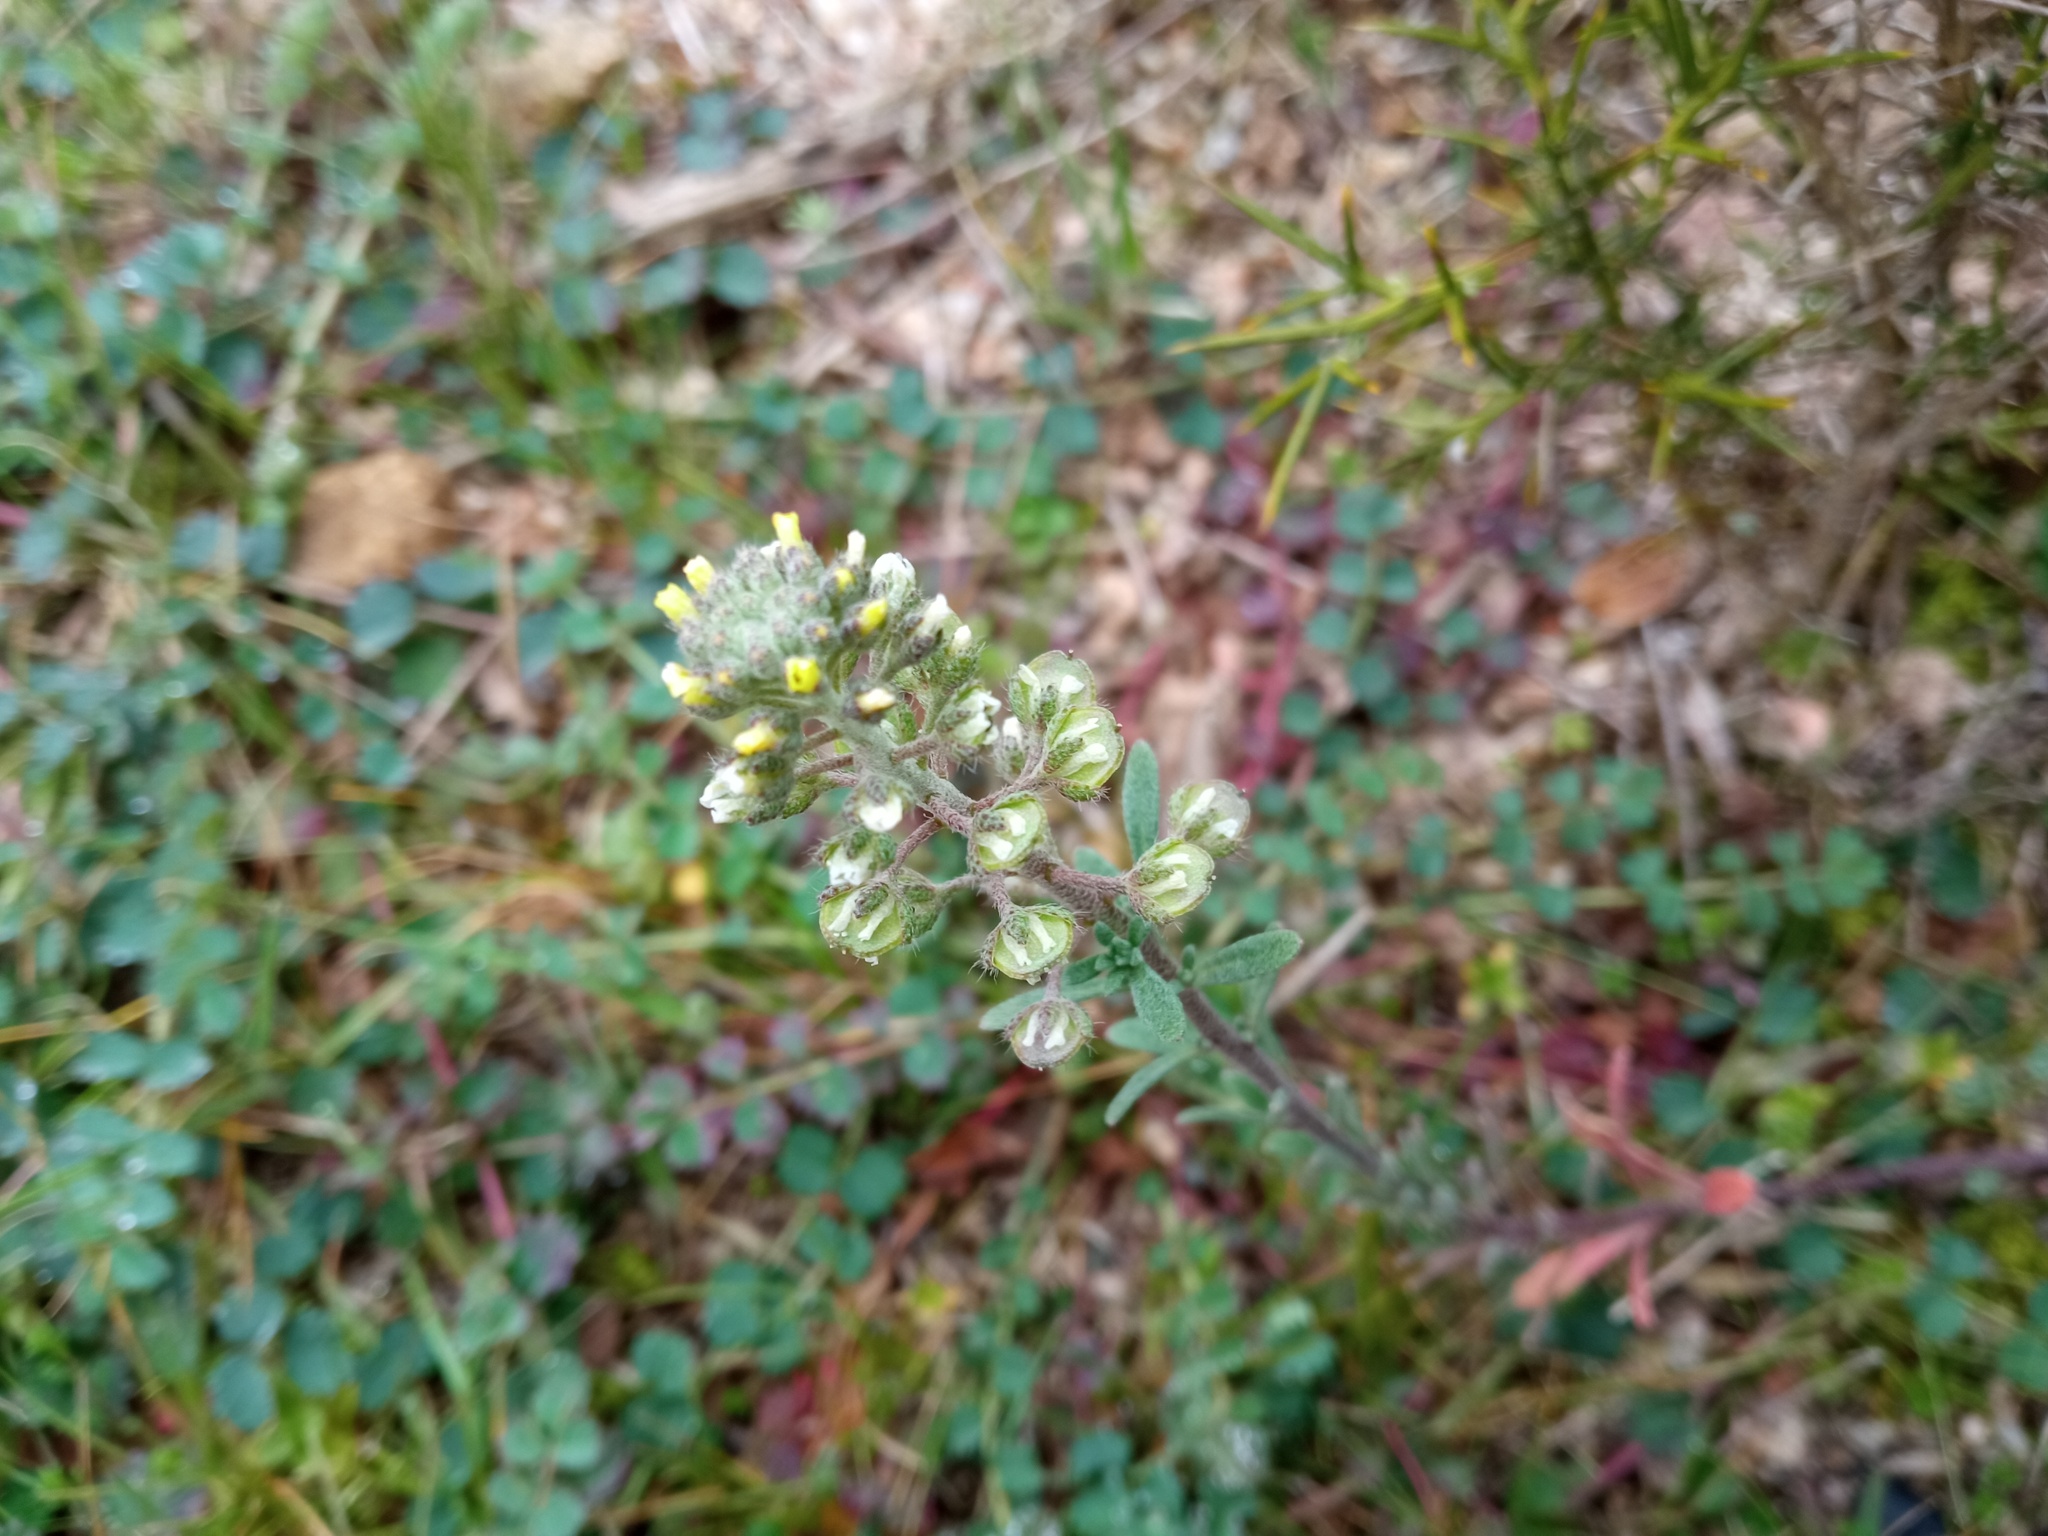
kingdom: Plantae
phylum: Tracheophyta
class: Magnoliopsida
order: Brassicales
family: Brassicaceae
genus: Alyssum
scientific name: Alyssum alyssoides
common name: Small alison
